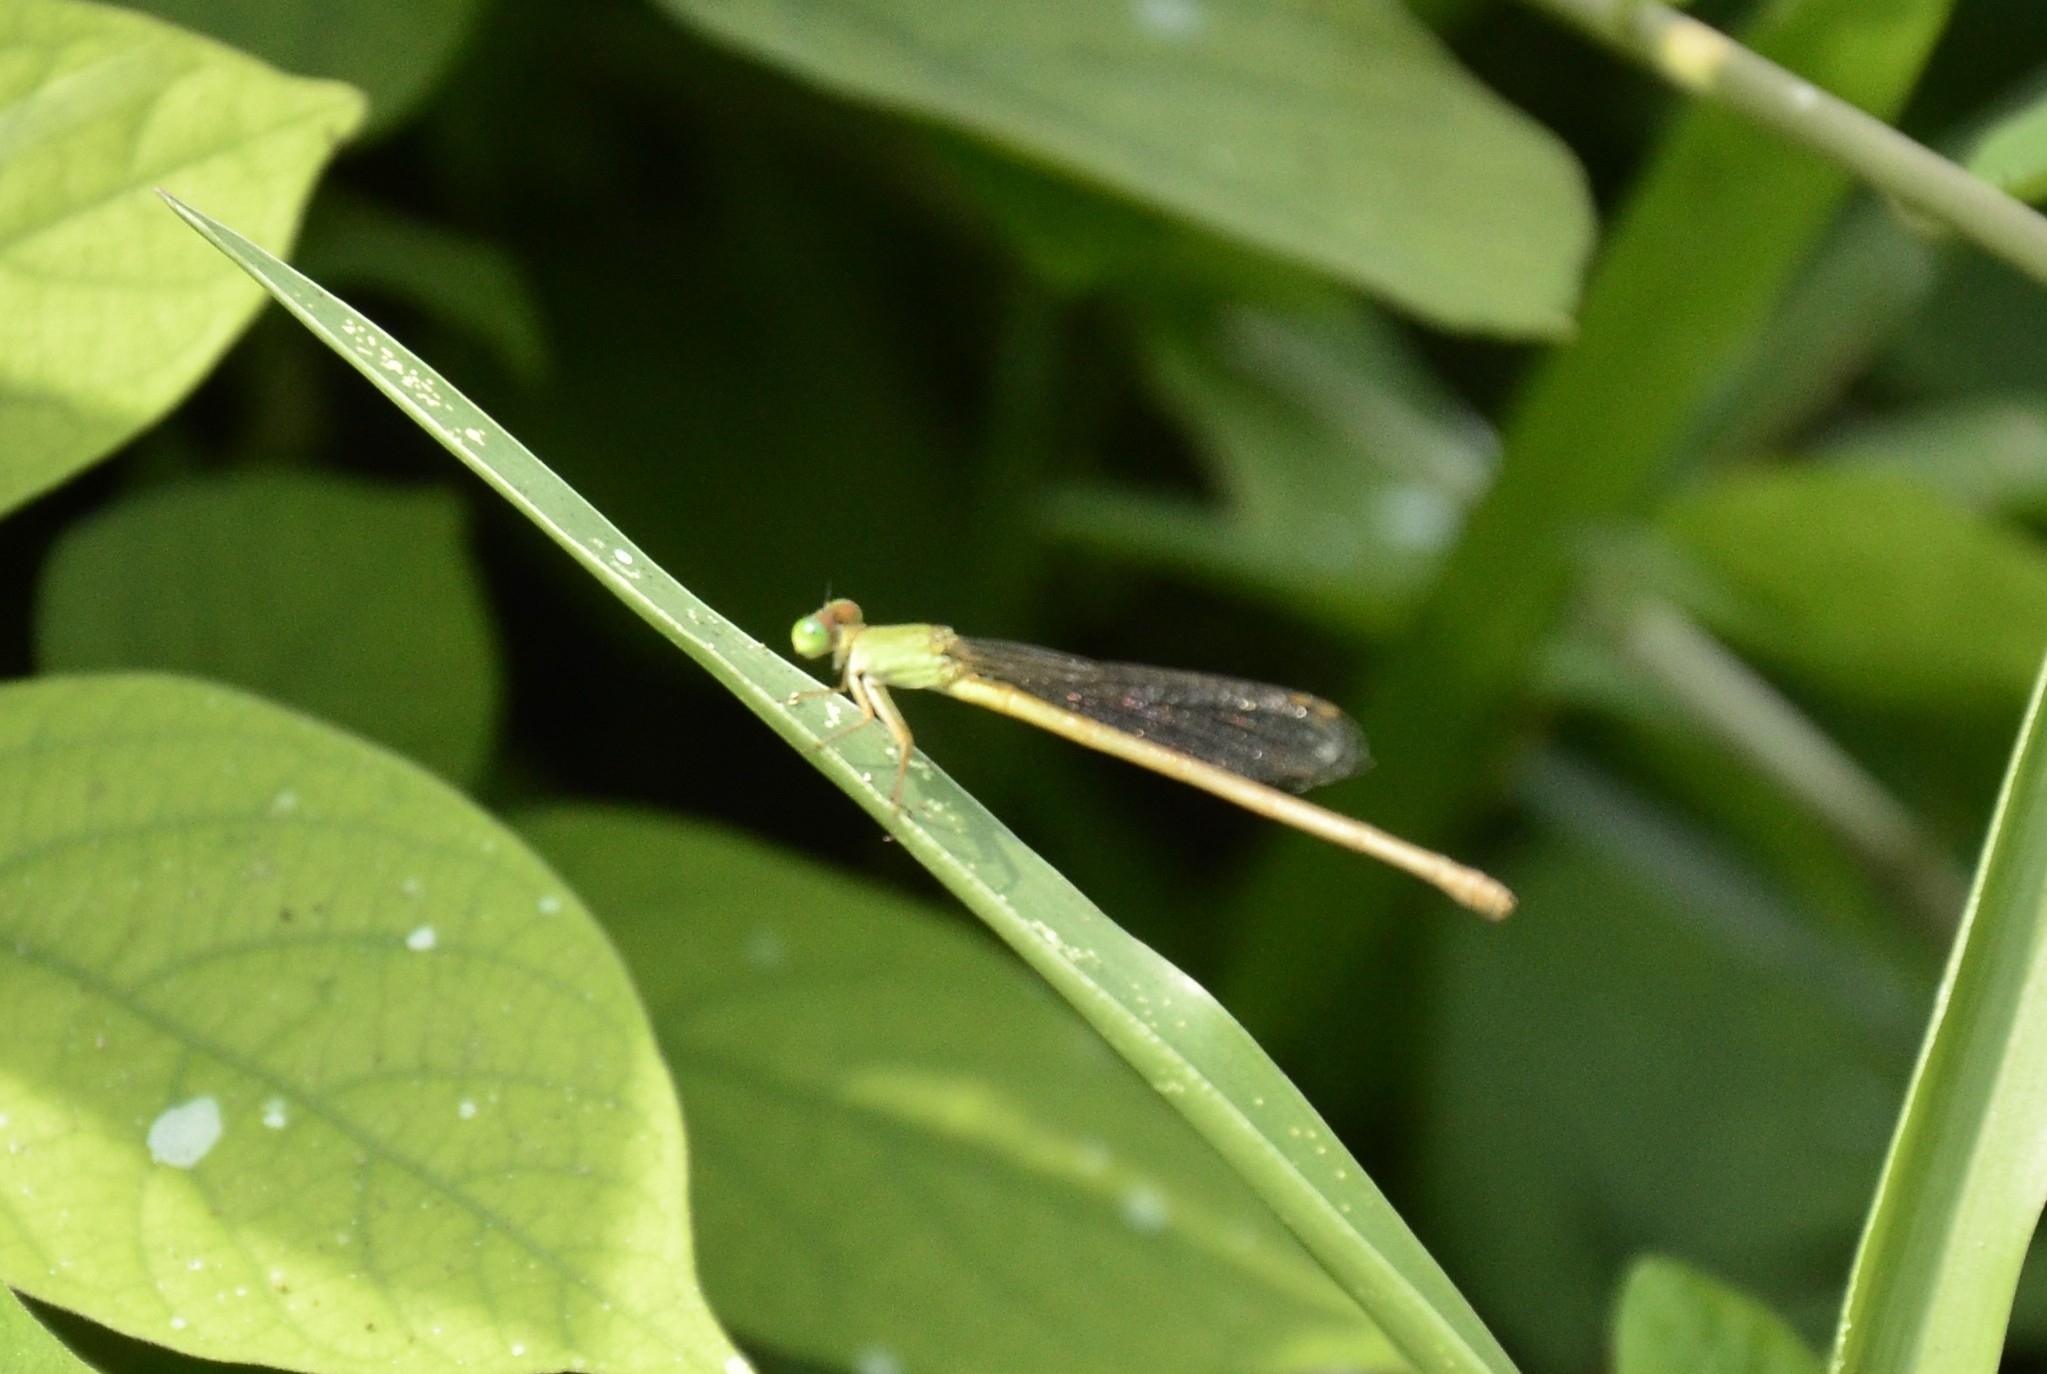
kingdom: Animalia
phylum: Arthropoda
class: Insecta
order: Odonata
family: Coenagrionidae
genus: Ceriagrion
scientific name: Ceriagrion coromandelianum
